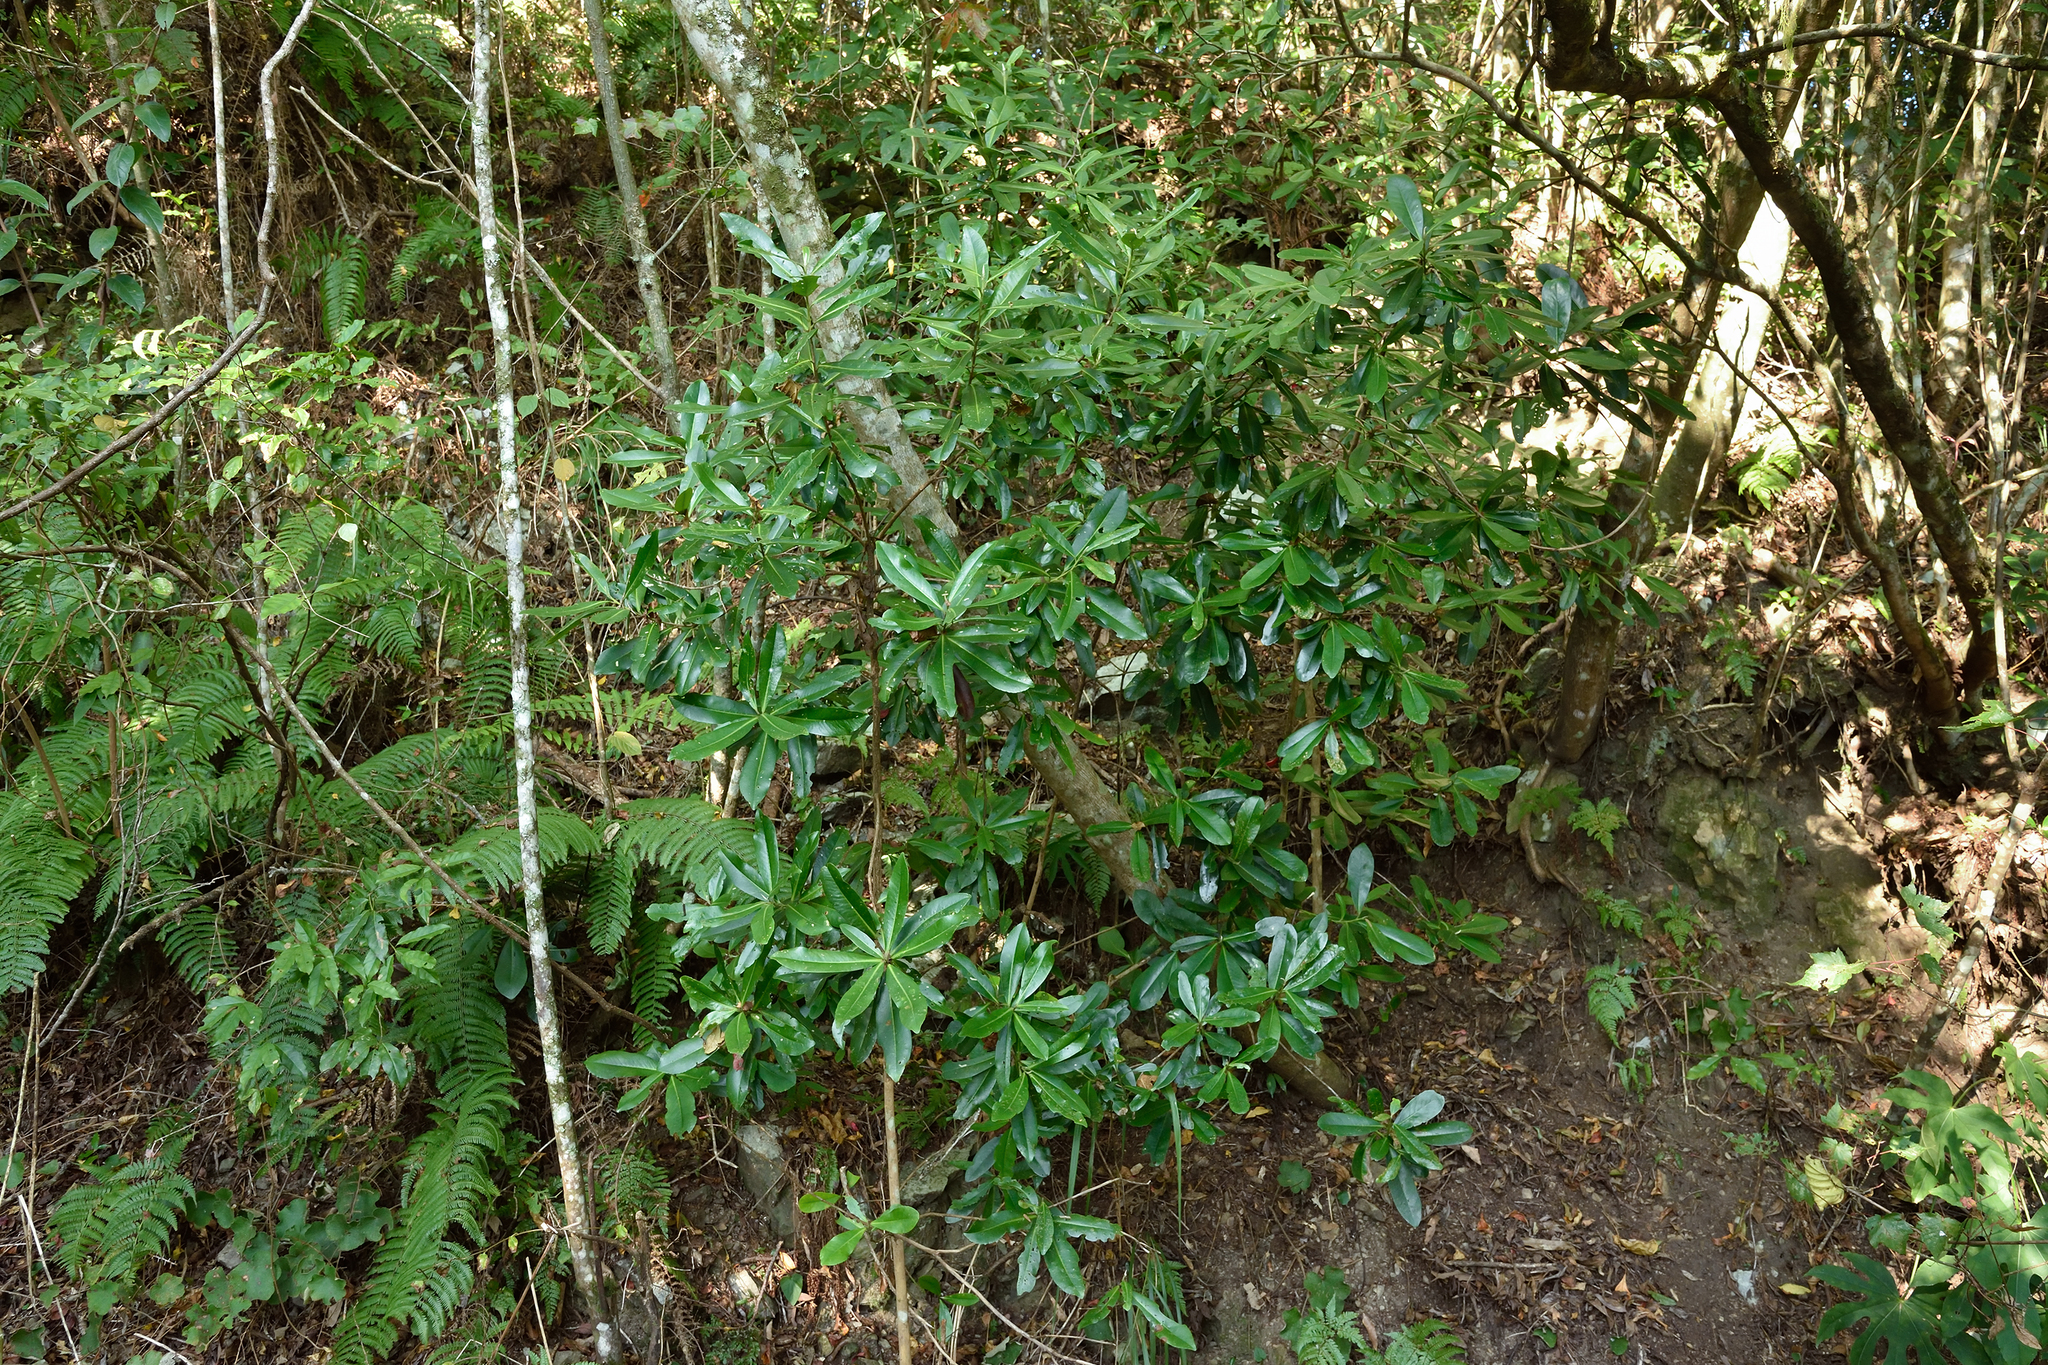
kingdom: Plantae
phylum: Tracheophyta
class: Magnoliopsida
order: Ericales
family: Theaceae
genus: Polyspora
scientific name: Polyspora axillaris
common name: Fried egg tree
